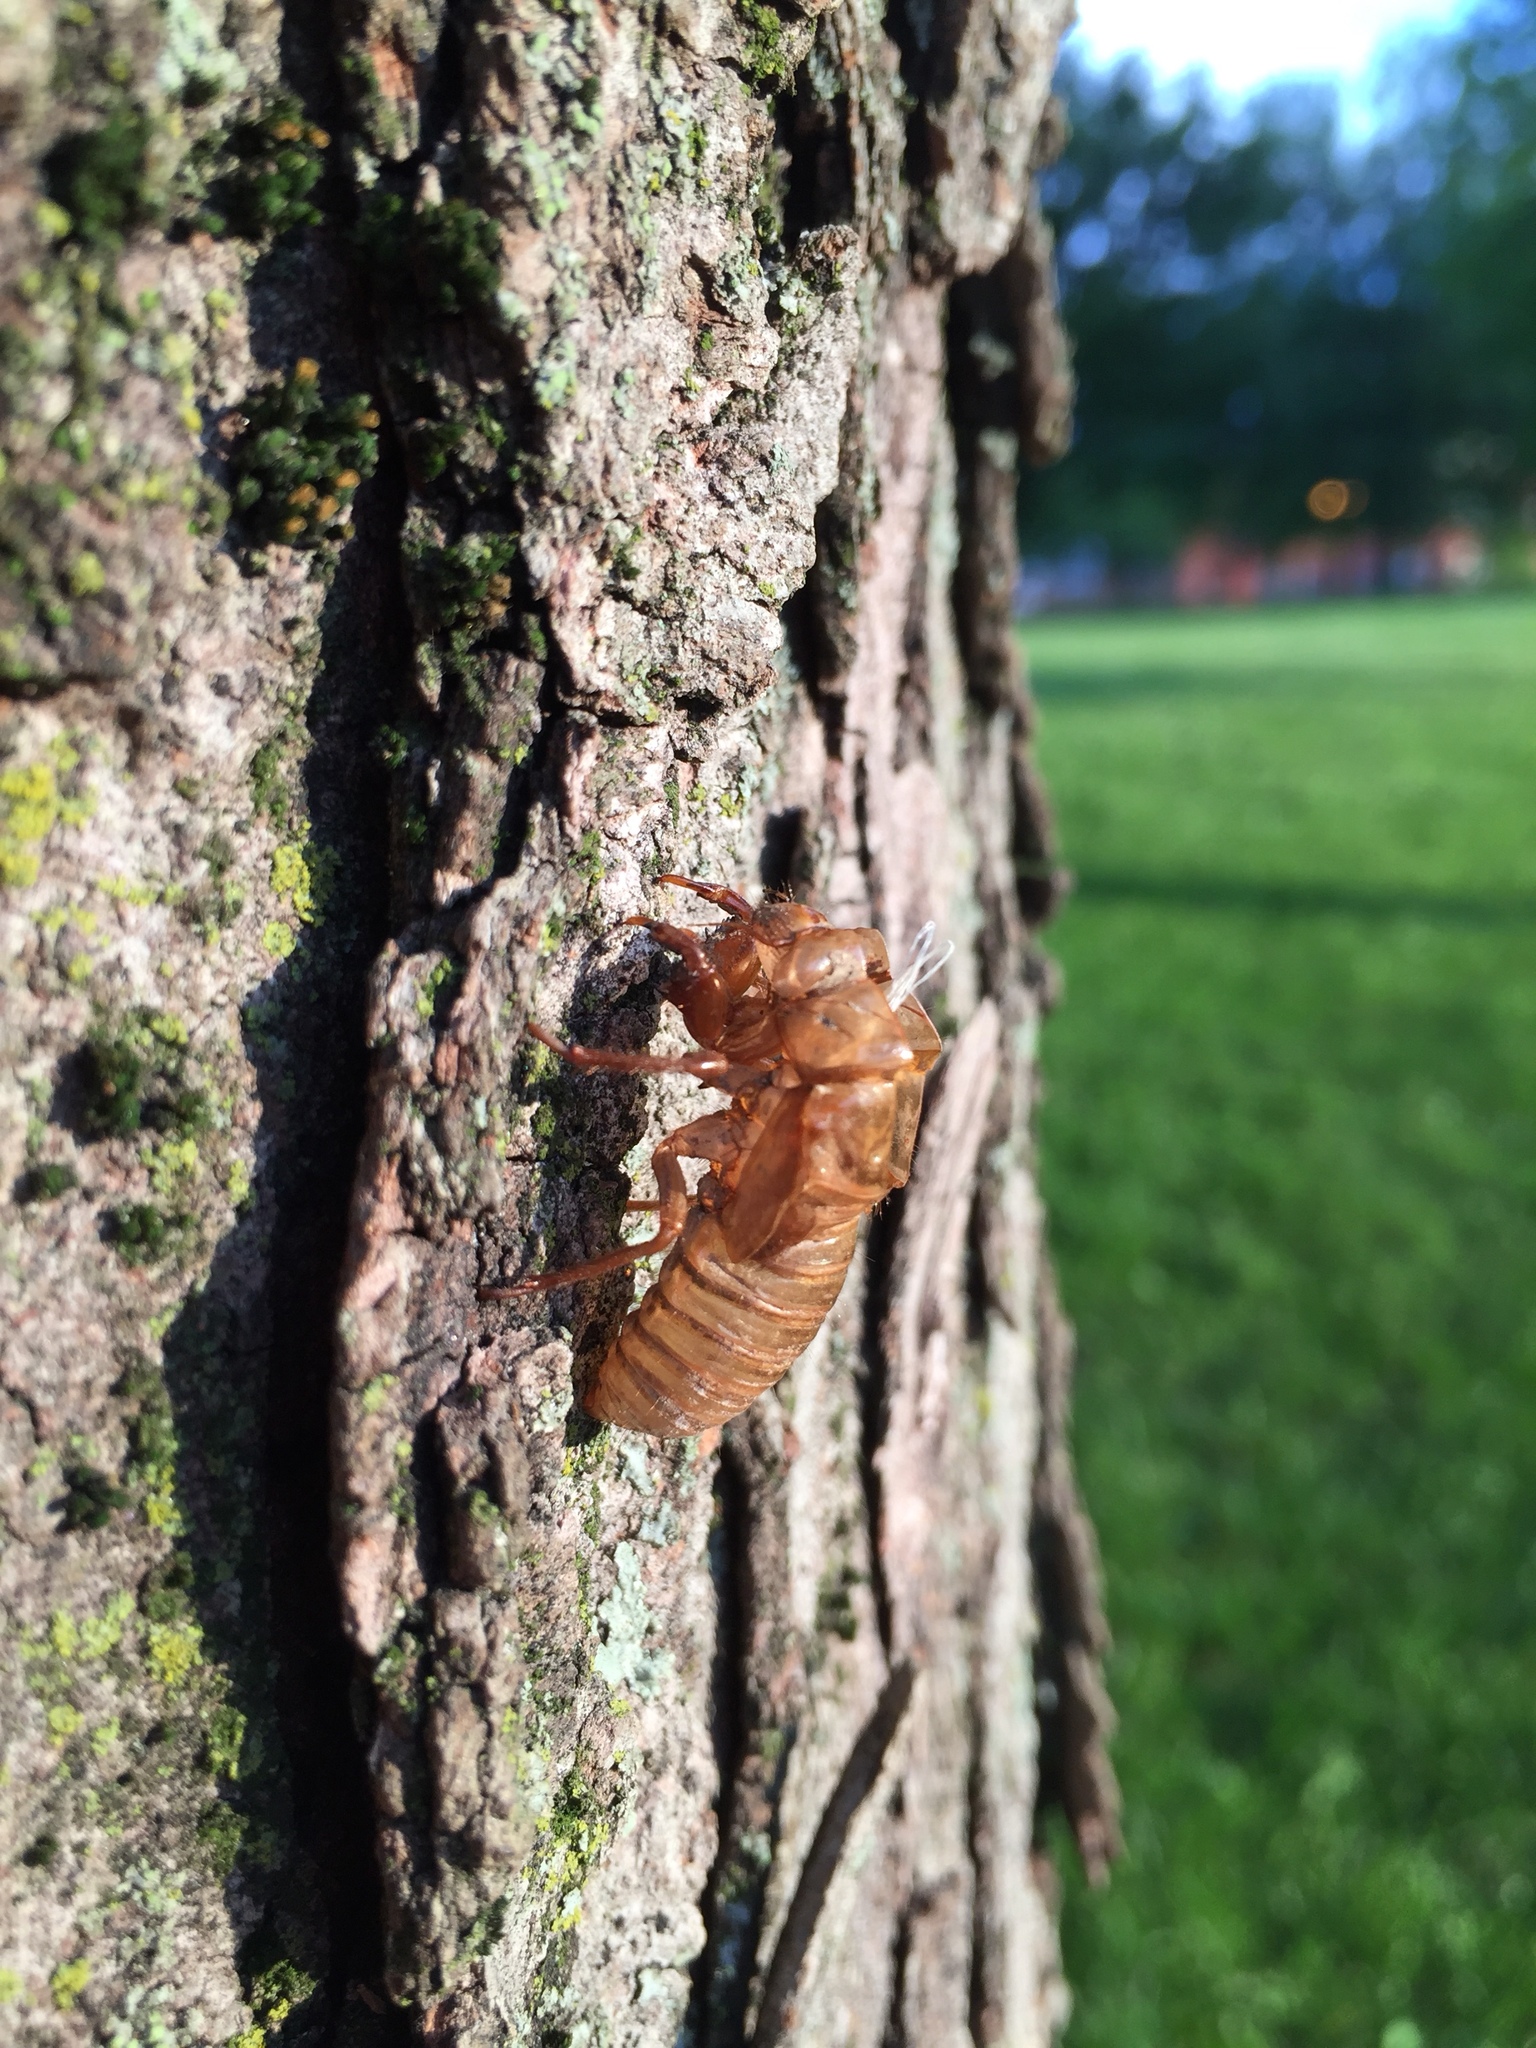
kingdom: Animalia
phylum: Arthropoda
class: Insecta
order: Hemiptera
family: Cicadidae
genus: Magicicada
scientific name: Magicicada
